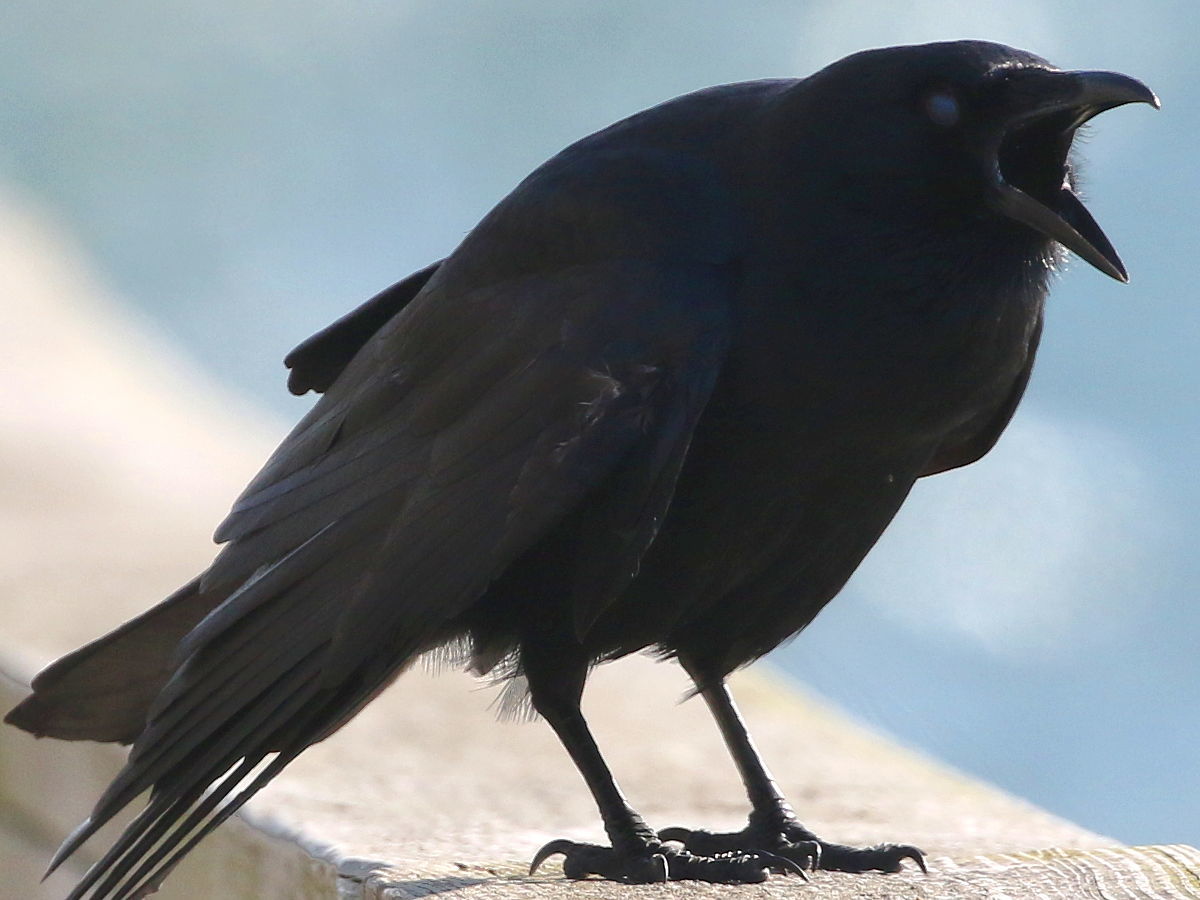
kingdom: Animalia
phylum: Chordata
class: Aves
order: Passeriformes
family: Corvidae
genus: Corvus
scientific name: Corvus ossifragus
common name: Fish crow
